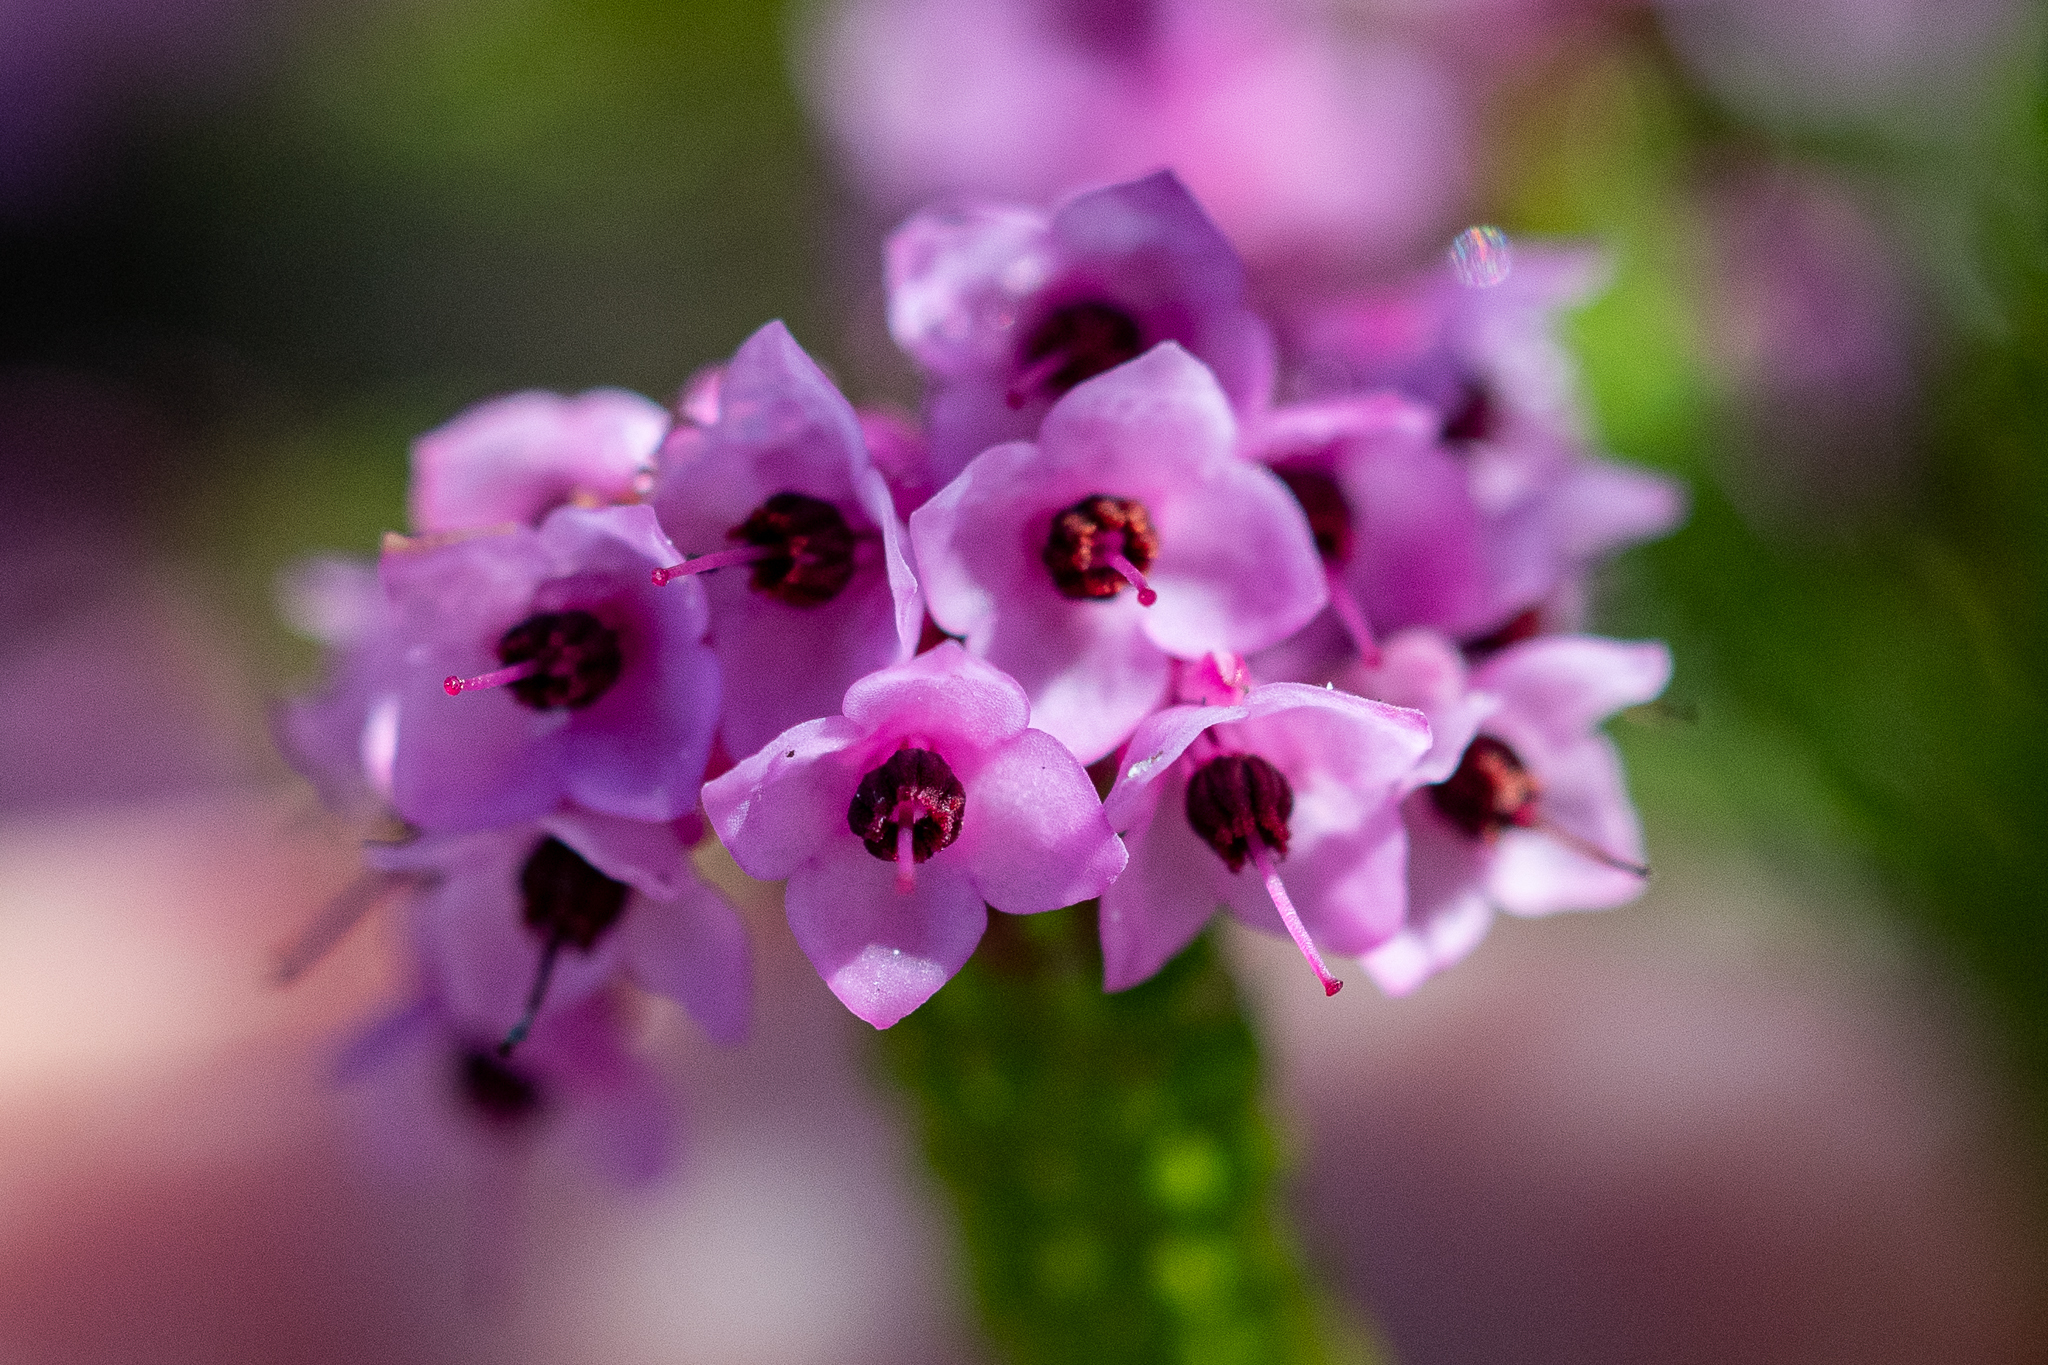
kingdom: Plantae
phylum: Tracheophyta
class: Magnoliopsida
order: Ericales
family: Ericaceae
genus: Erica
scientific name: Erica seriphiifolia
